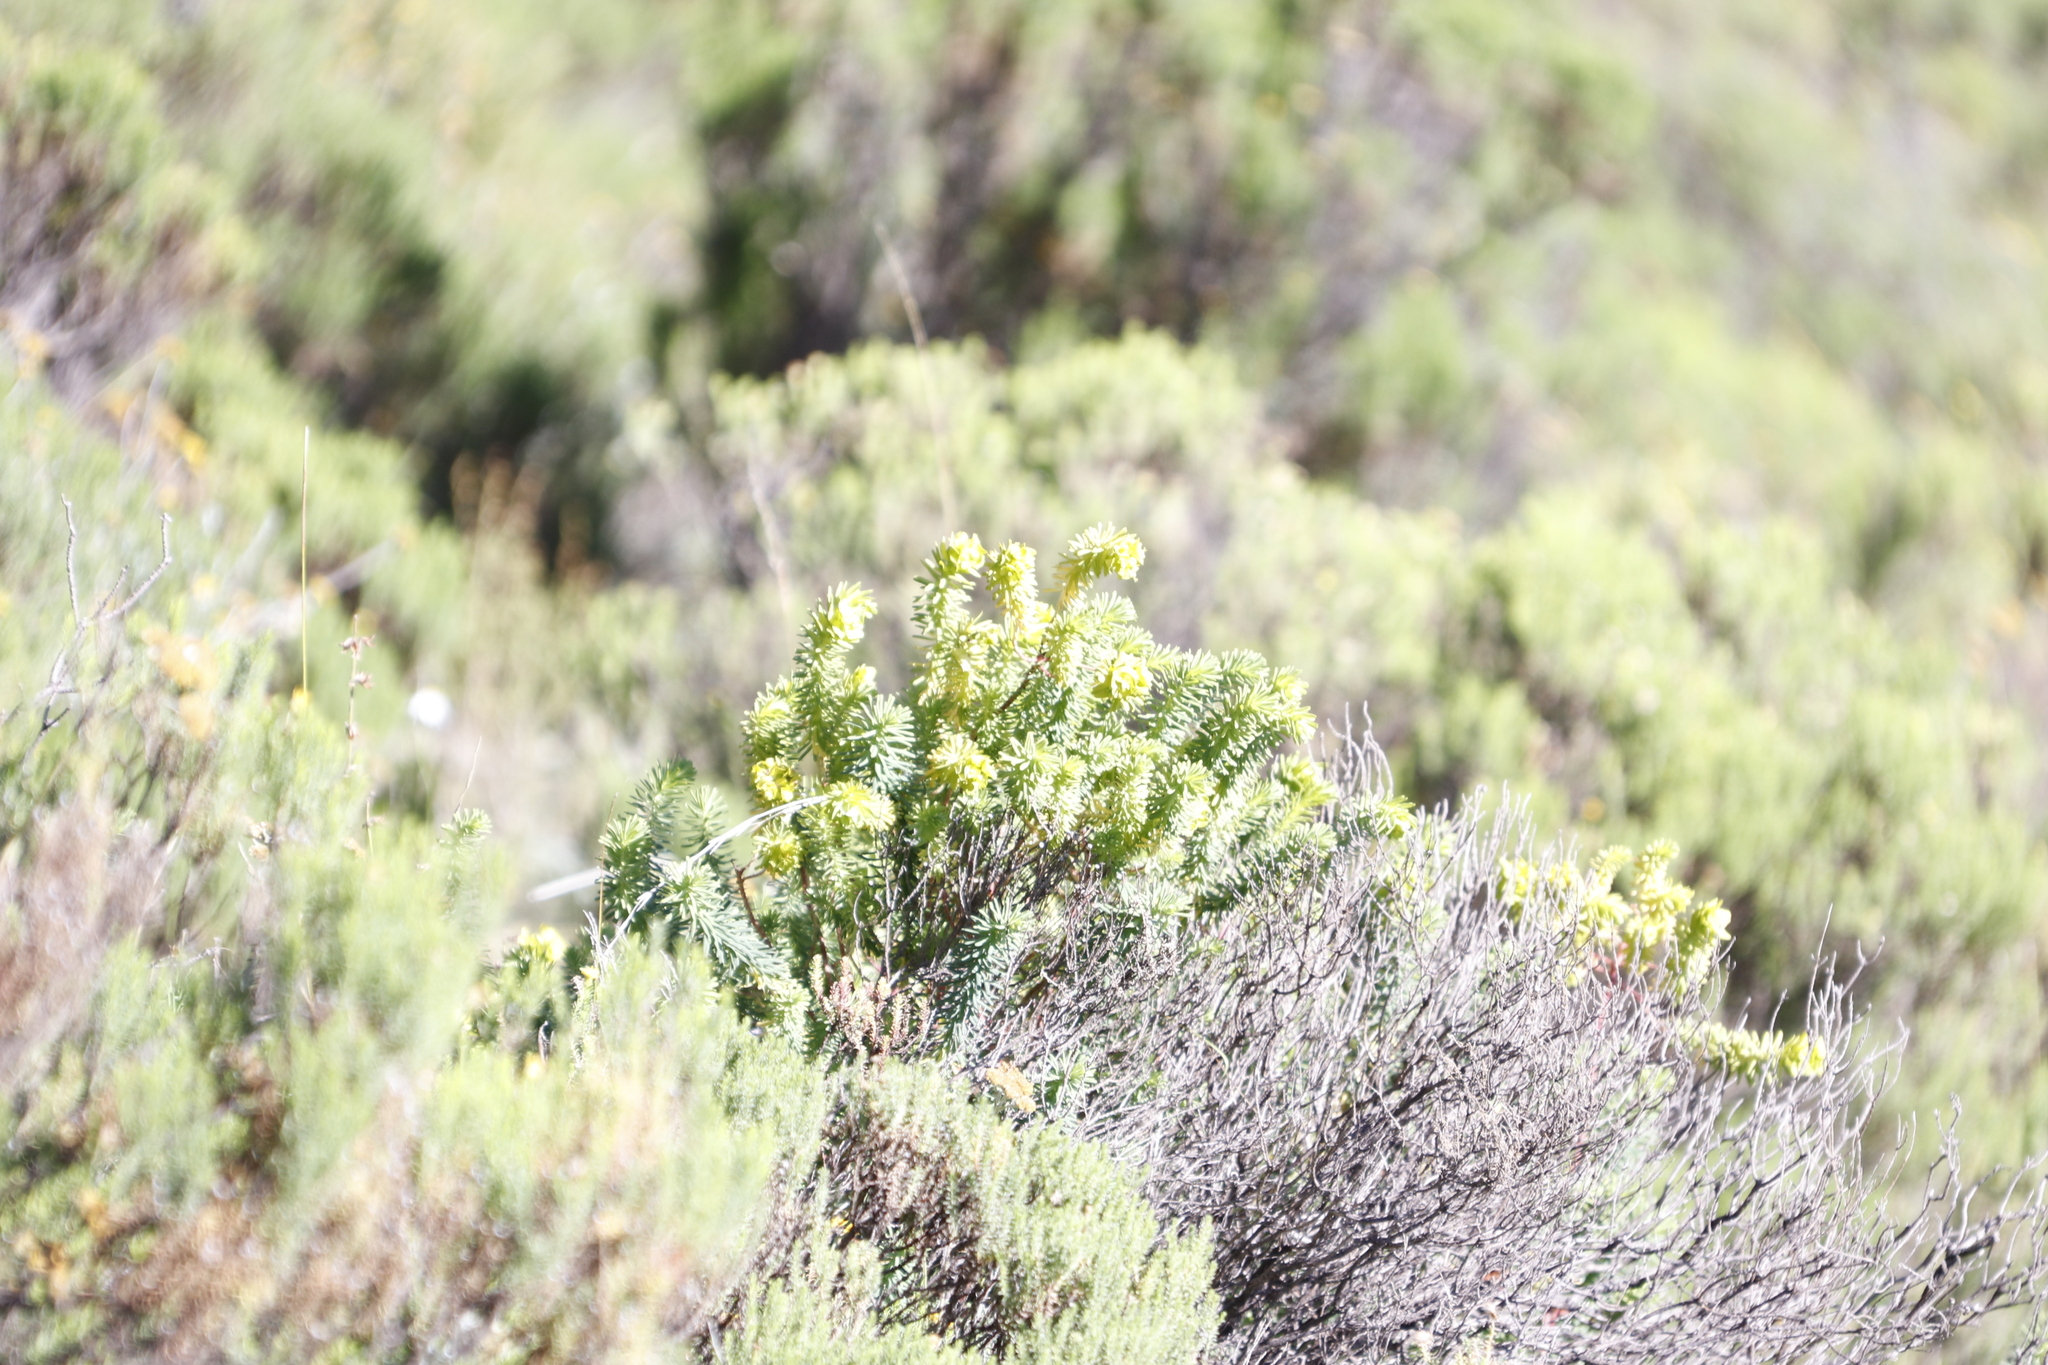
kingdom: Plantae
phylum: Tracheophyta
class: Magnoliopsida
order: Malpighiales
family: Euphorbiaceae
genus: Euphorbia
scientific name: Euphorbia natalensis
